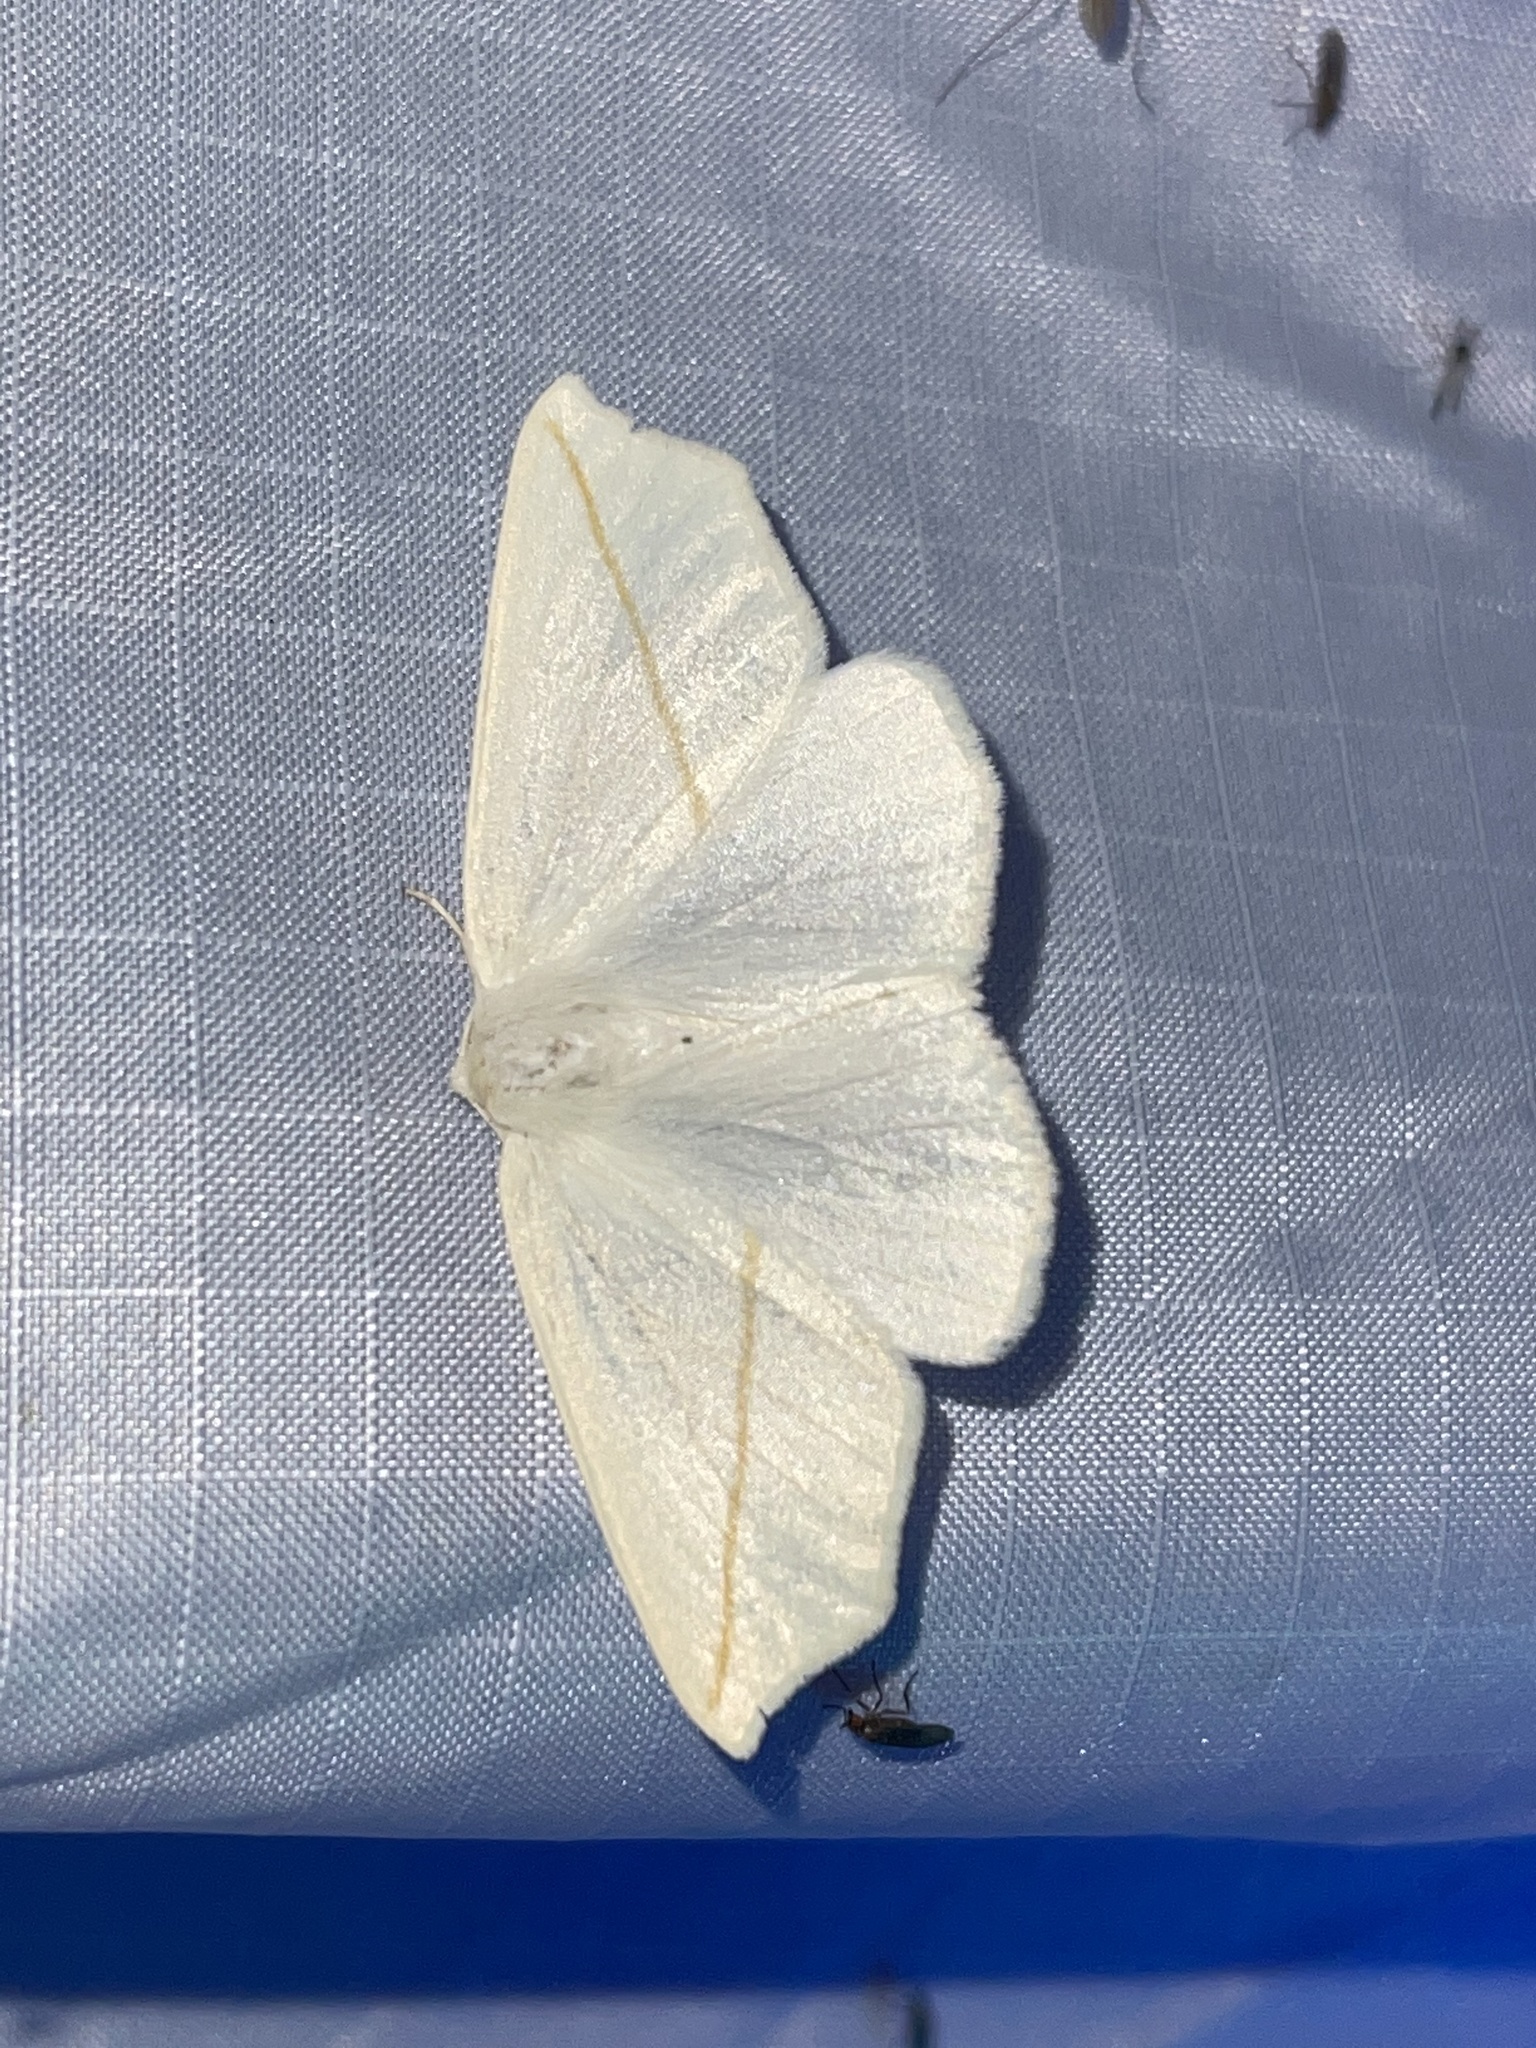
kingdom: Animalia
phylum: Arthropoda
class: Insecta
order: Lepidoptera
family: Geometridae
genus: Tetracis
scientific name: Tetracis cachexiata
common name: White slant-line
